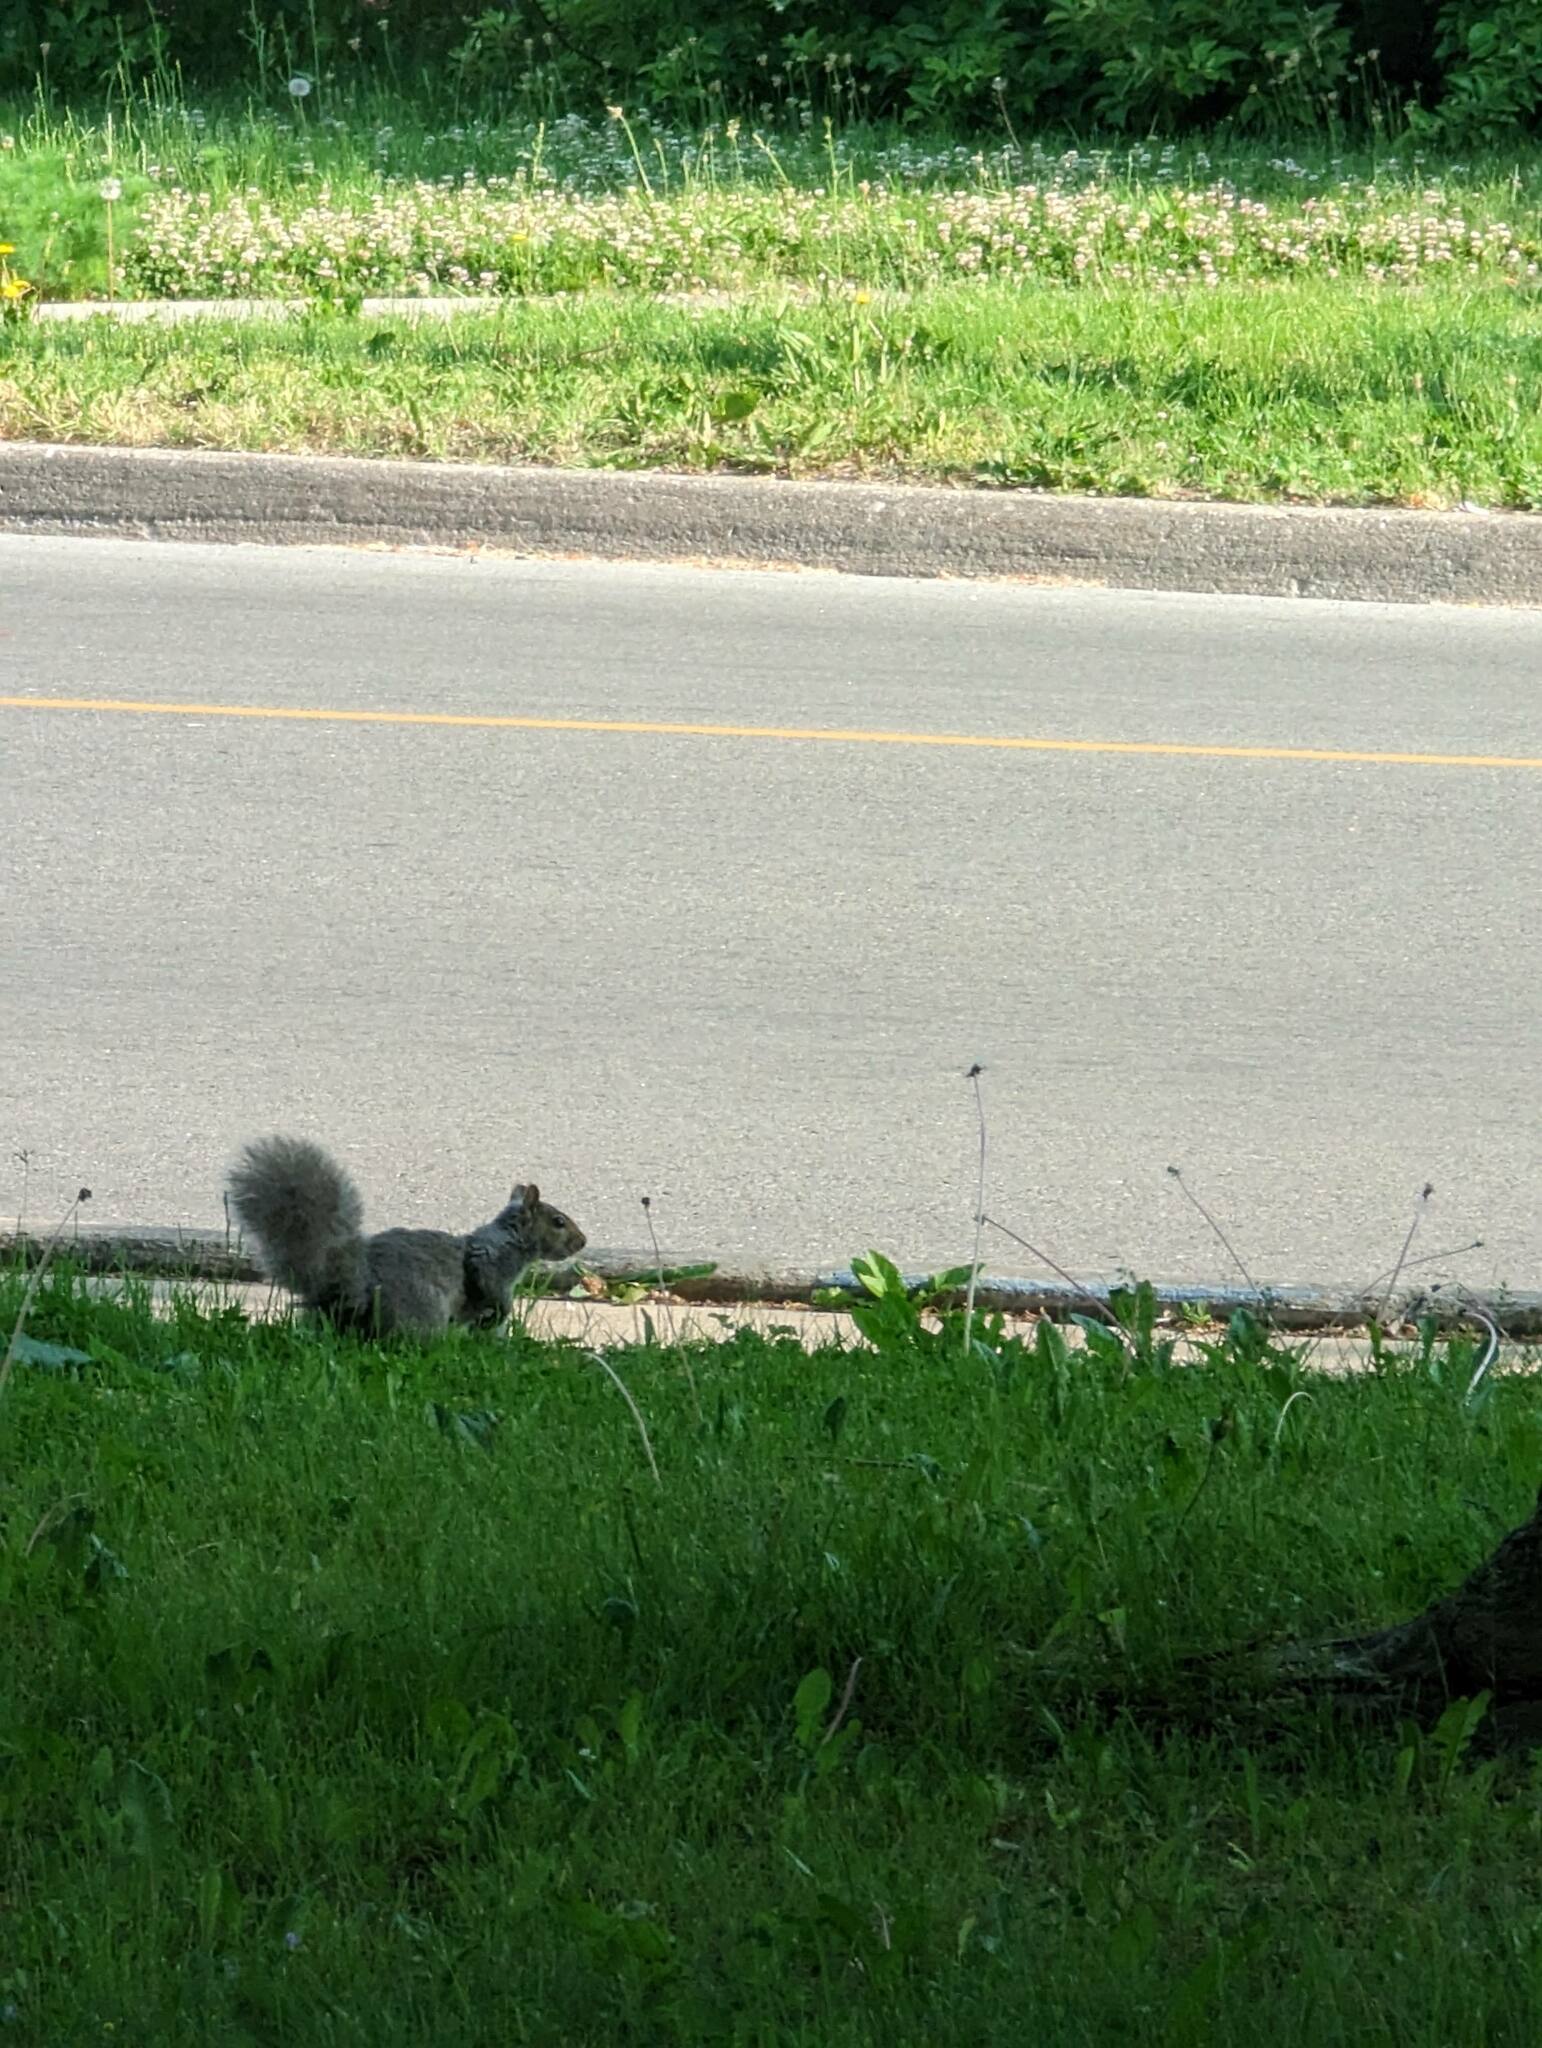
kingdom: Animalia
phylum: Chordata
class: Mammalia
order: Rodentia
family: Sciuridae
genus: Sciurus
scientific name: Sciurus carolinensis
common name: Eastern gray squirrel
